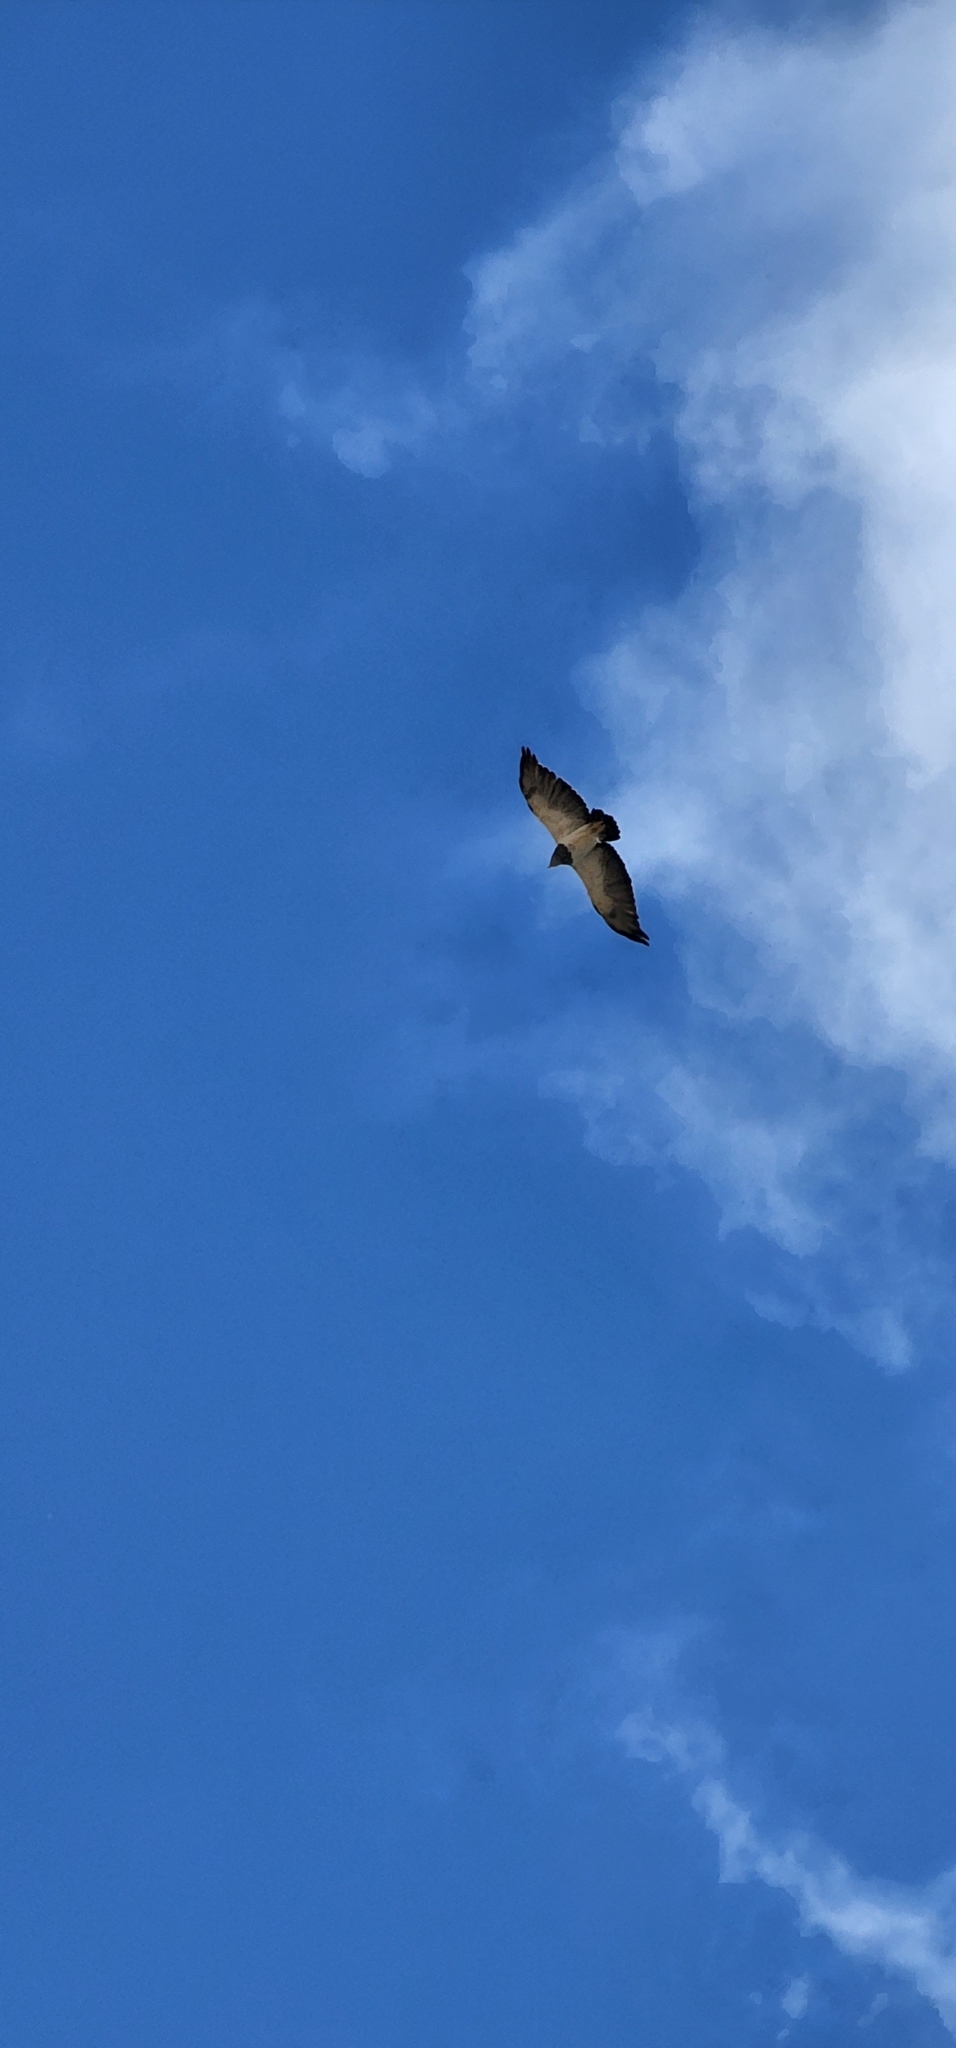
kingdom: Animalia
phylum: Chordata
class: Aves
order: Accipitriformes
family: Accipitridae
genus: Geranoaetus
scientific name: Geranoaetus melanoleucus
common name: Black-chested buzzard-eagle
